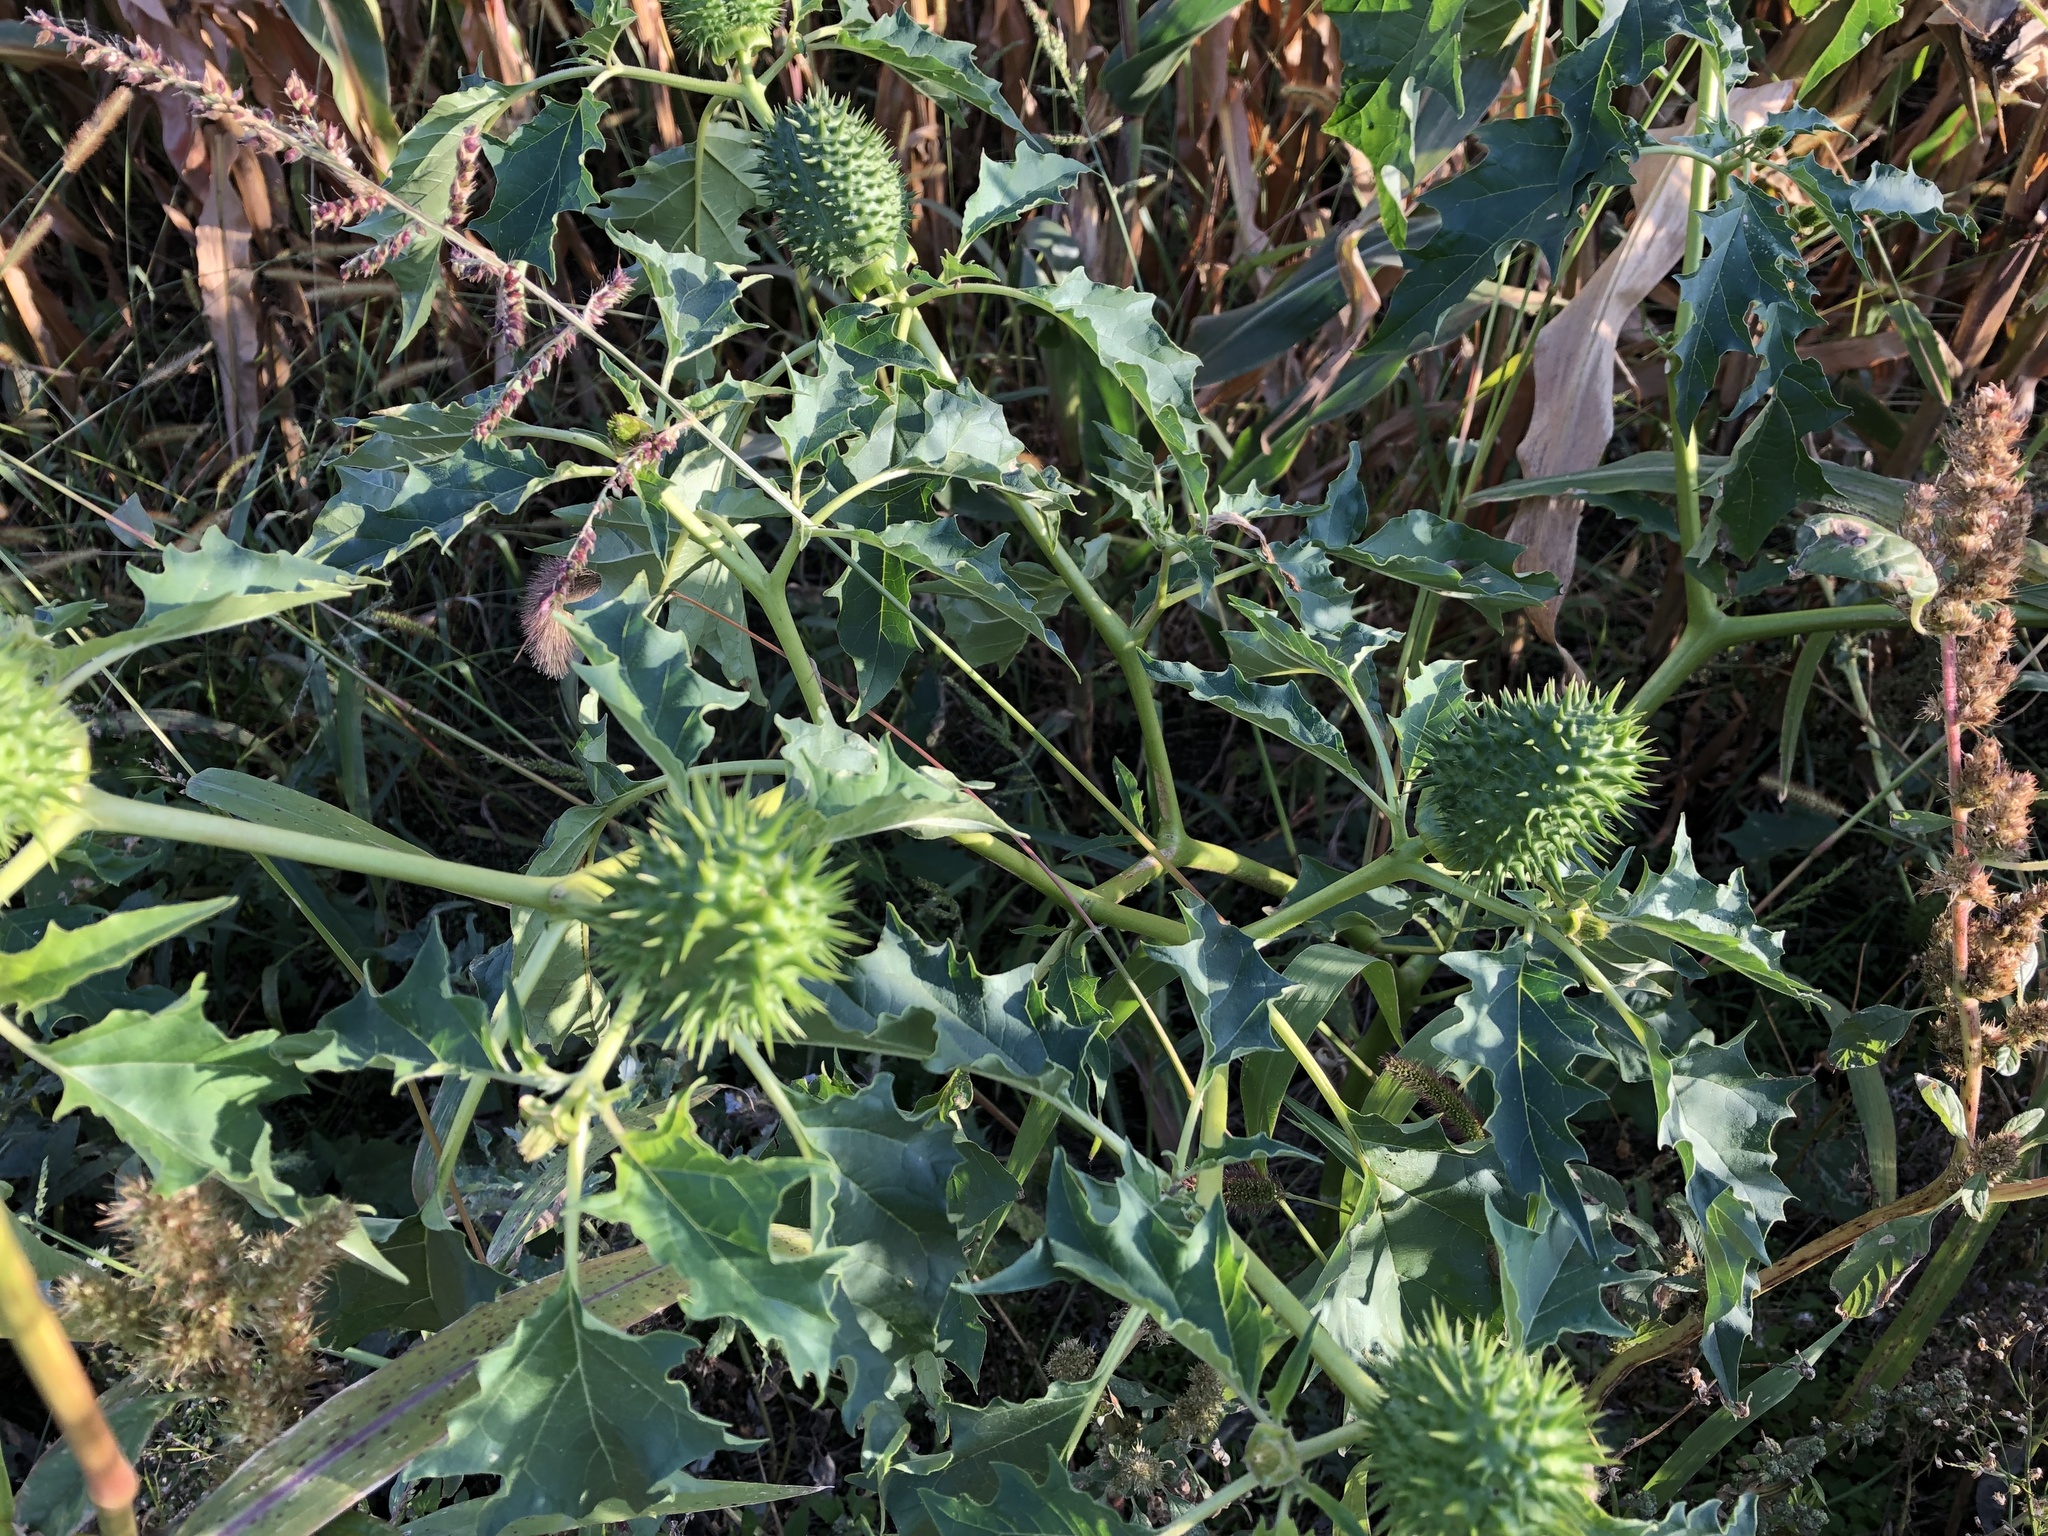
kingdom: Plantae
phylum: Tracheophyta
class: Magnoliopsida
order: Solanales
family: Solanaceae
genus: Datura
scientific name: Datura stramonium
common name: Thorn-apple
